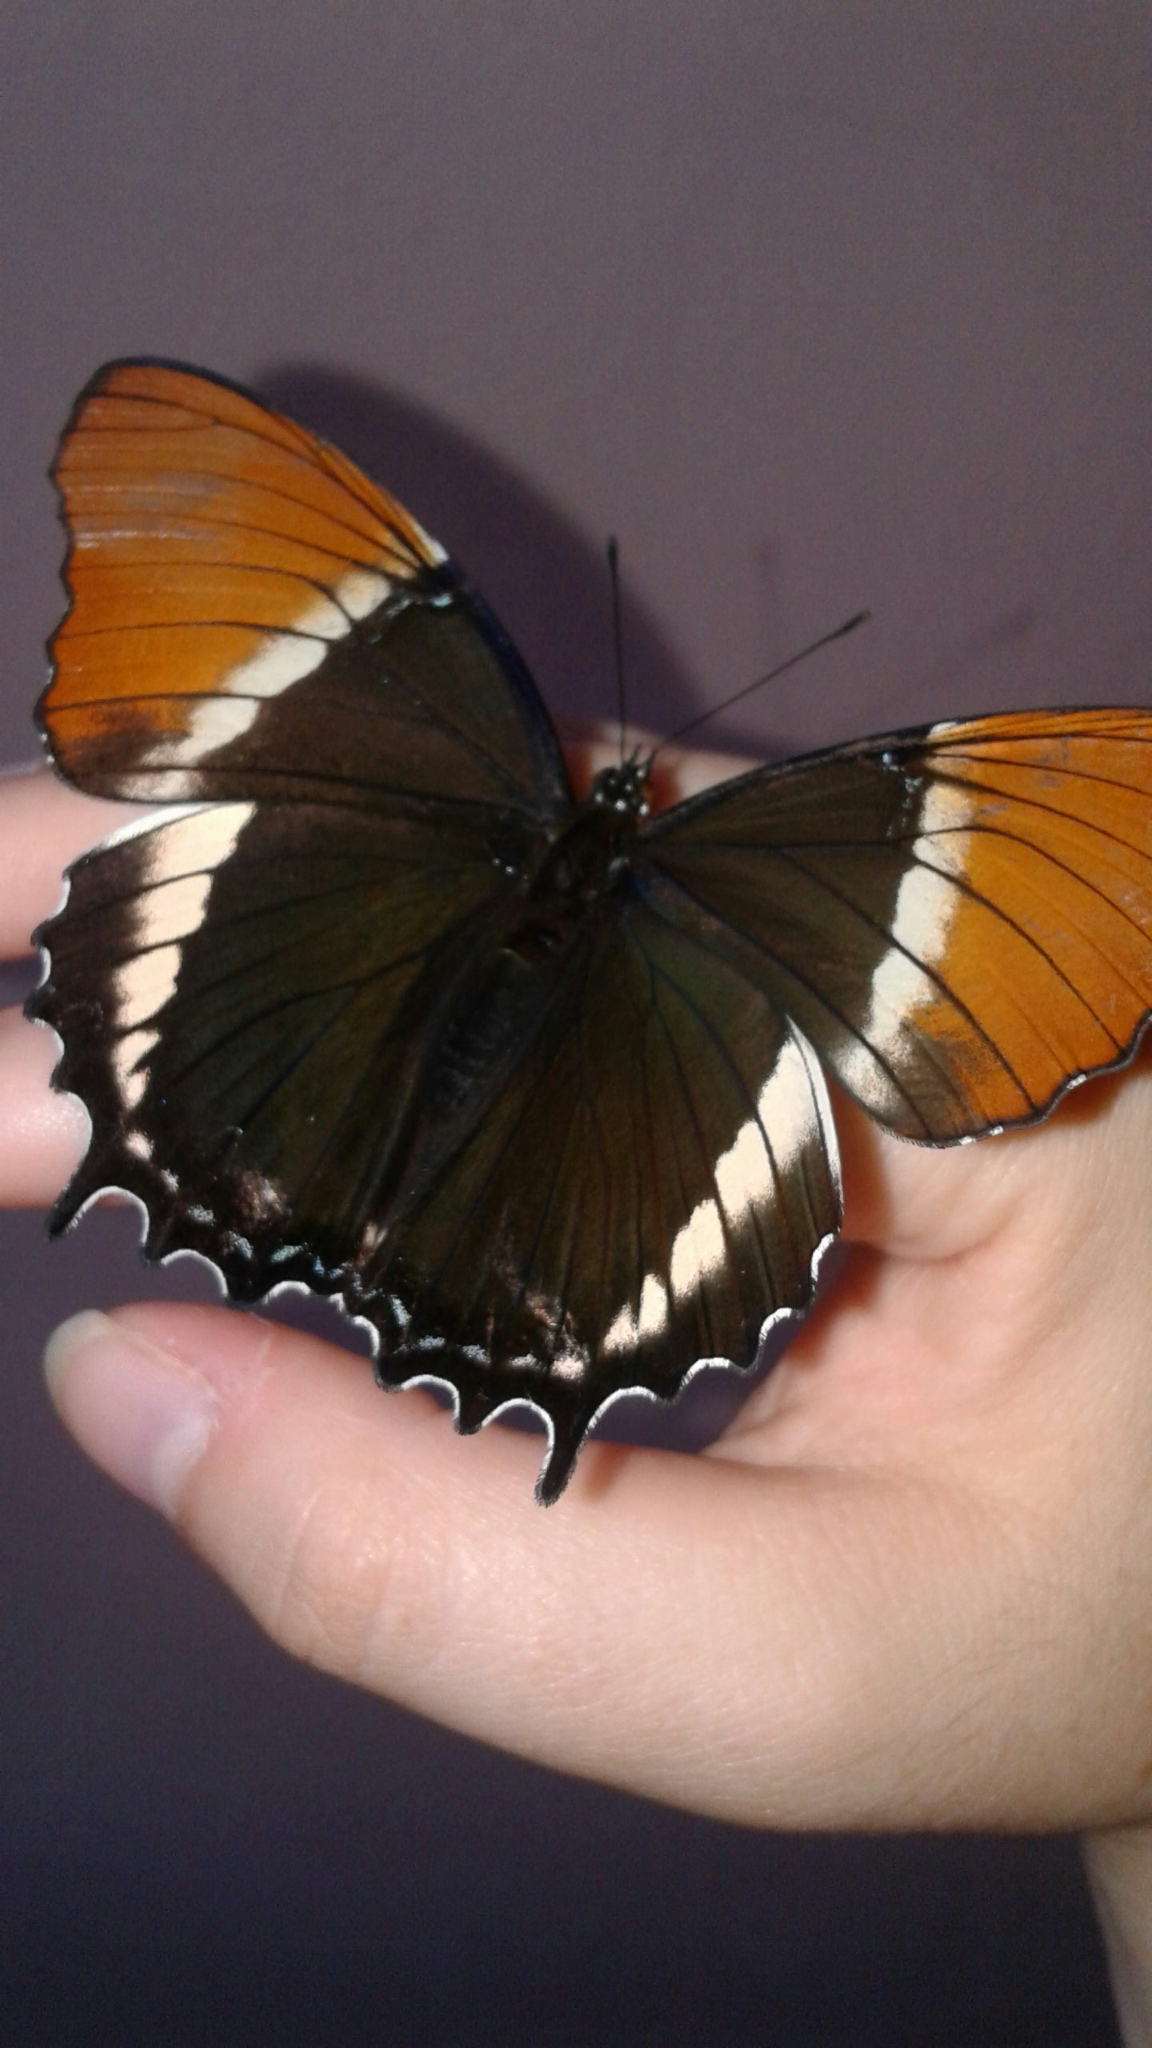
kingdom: Animalia
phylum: Arthropoda
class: Insecta
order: Lepidoptera
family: Nymphalidae
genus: Siproeta
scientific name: Siproeta epaphus
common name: Rusty-tipped page
